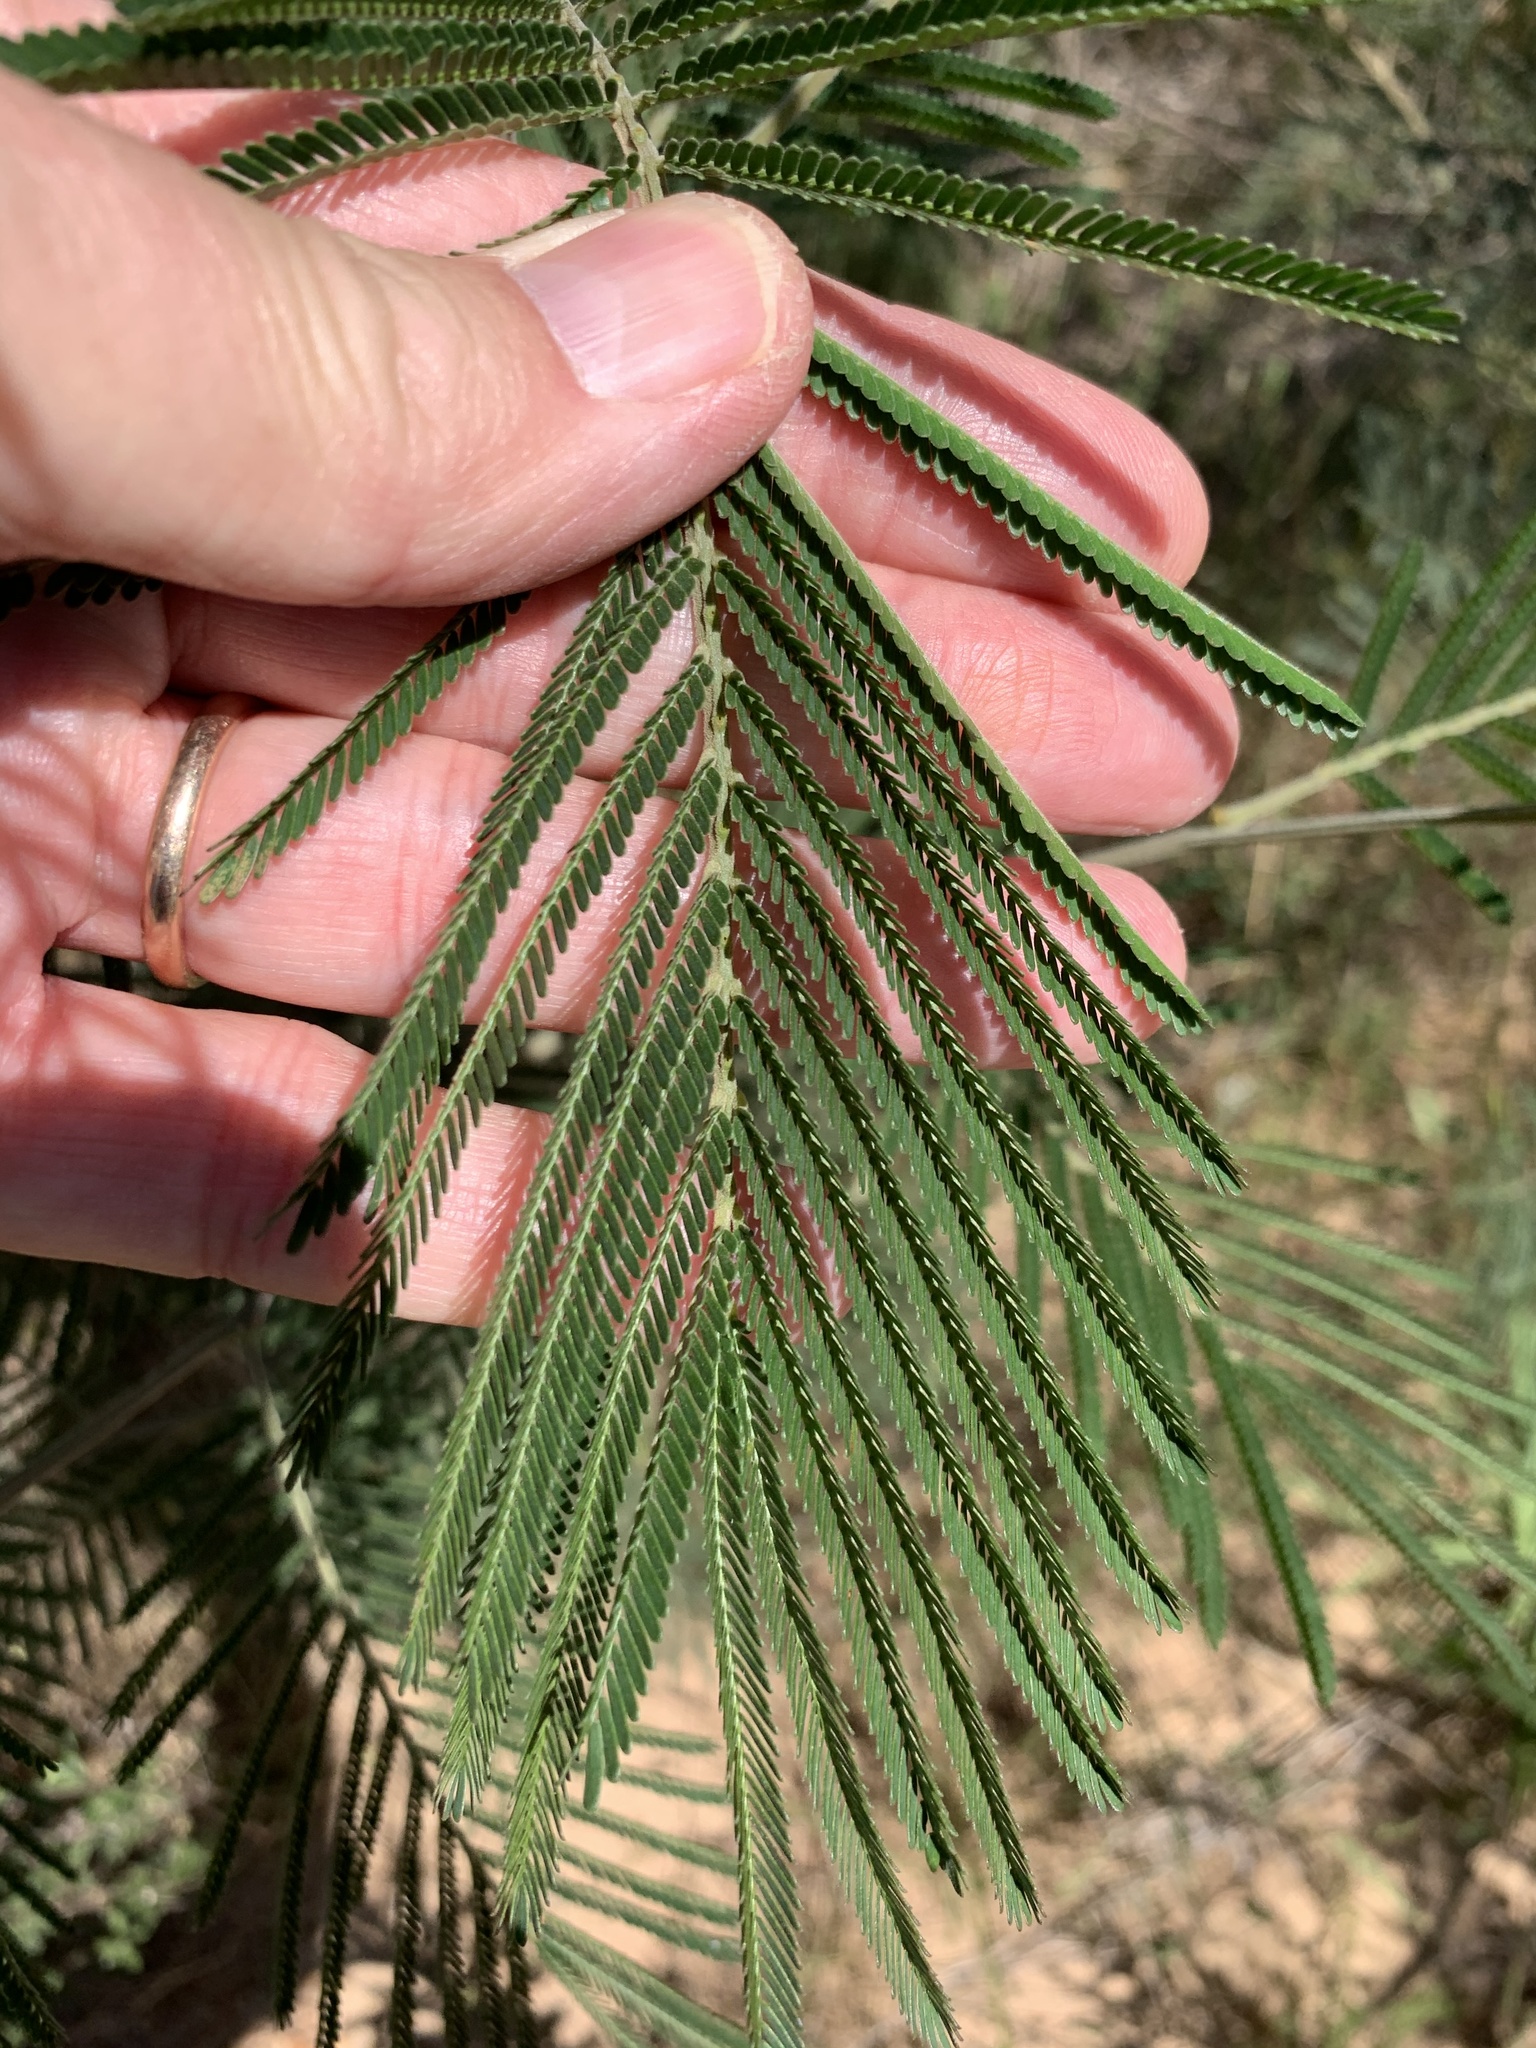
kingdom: Plantae
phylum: Tracheophyta
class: Magnoliopsida
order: Fabales
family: Fabaceae
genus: Acacia
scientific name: Acacia mearnsii
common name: Black wattle
